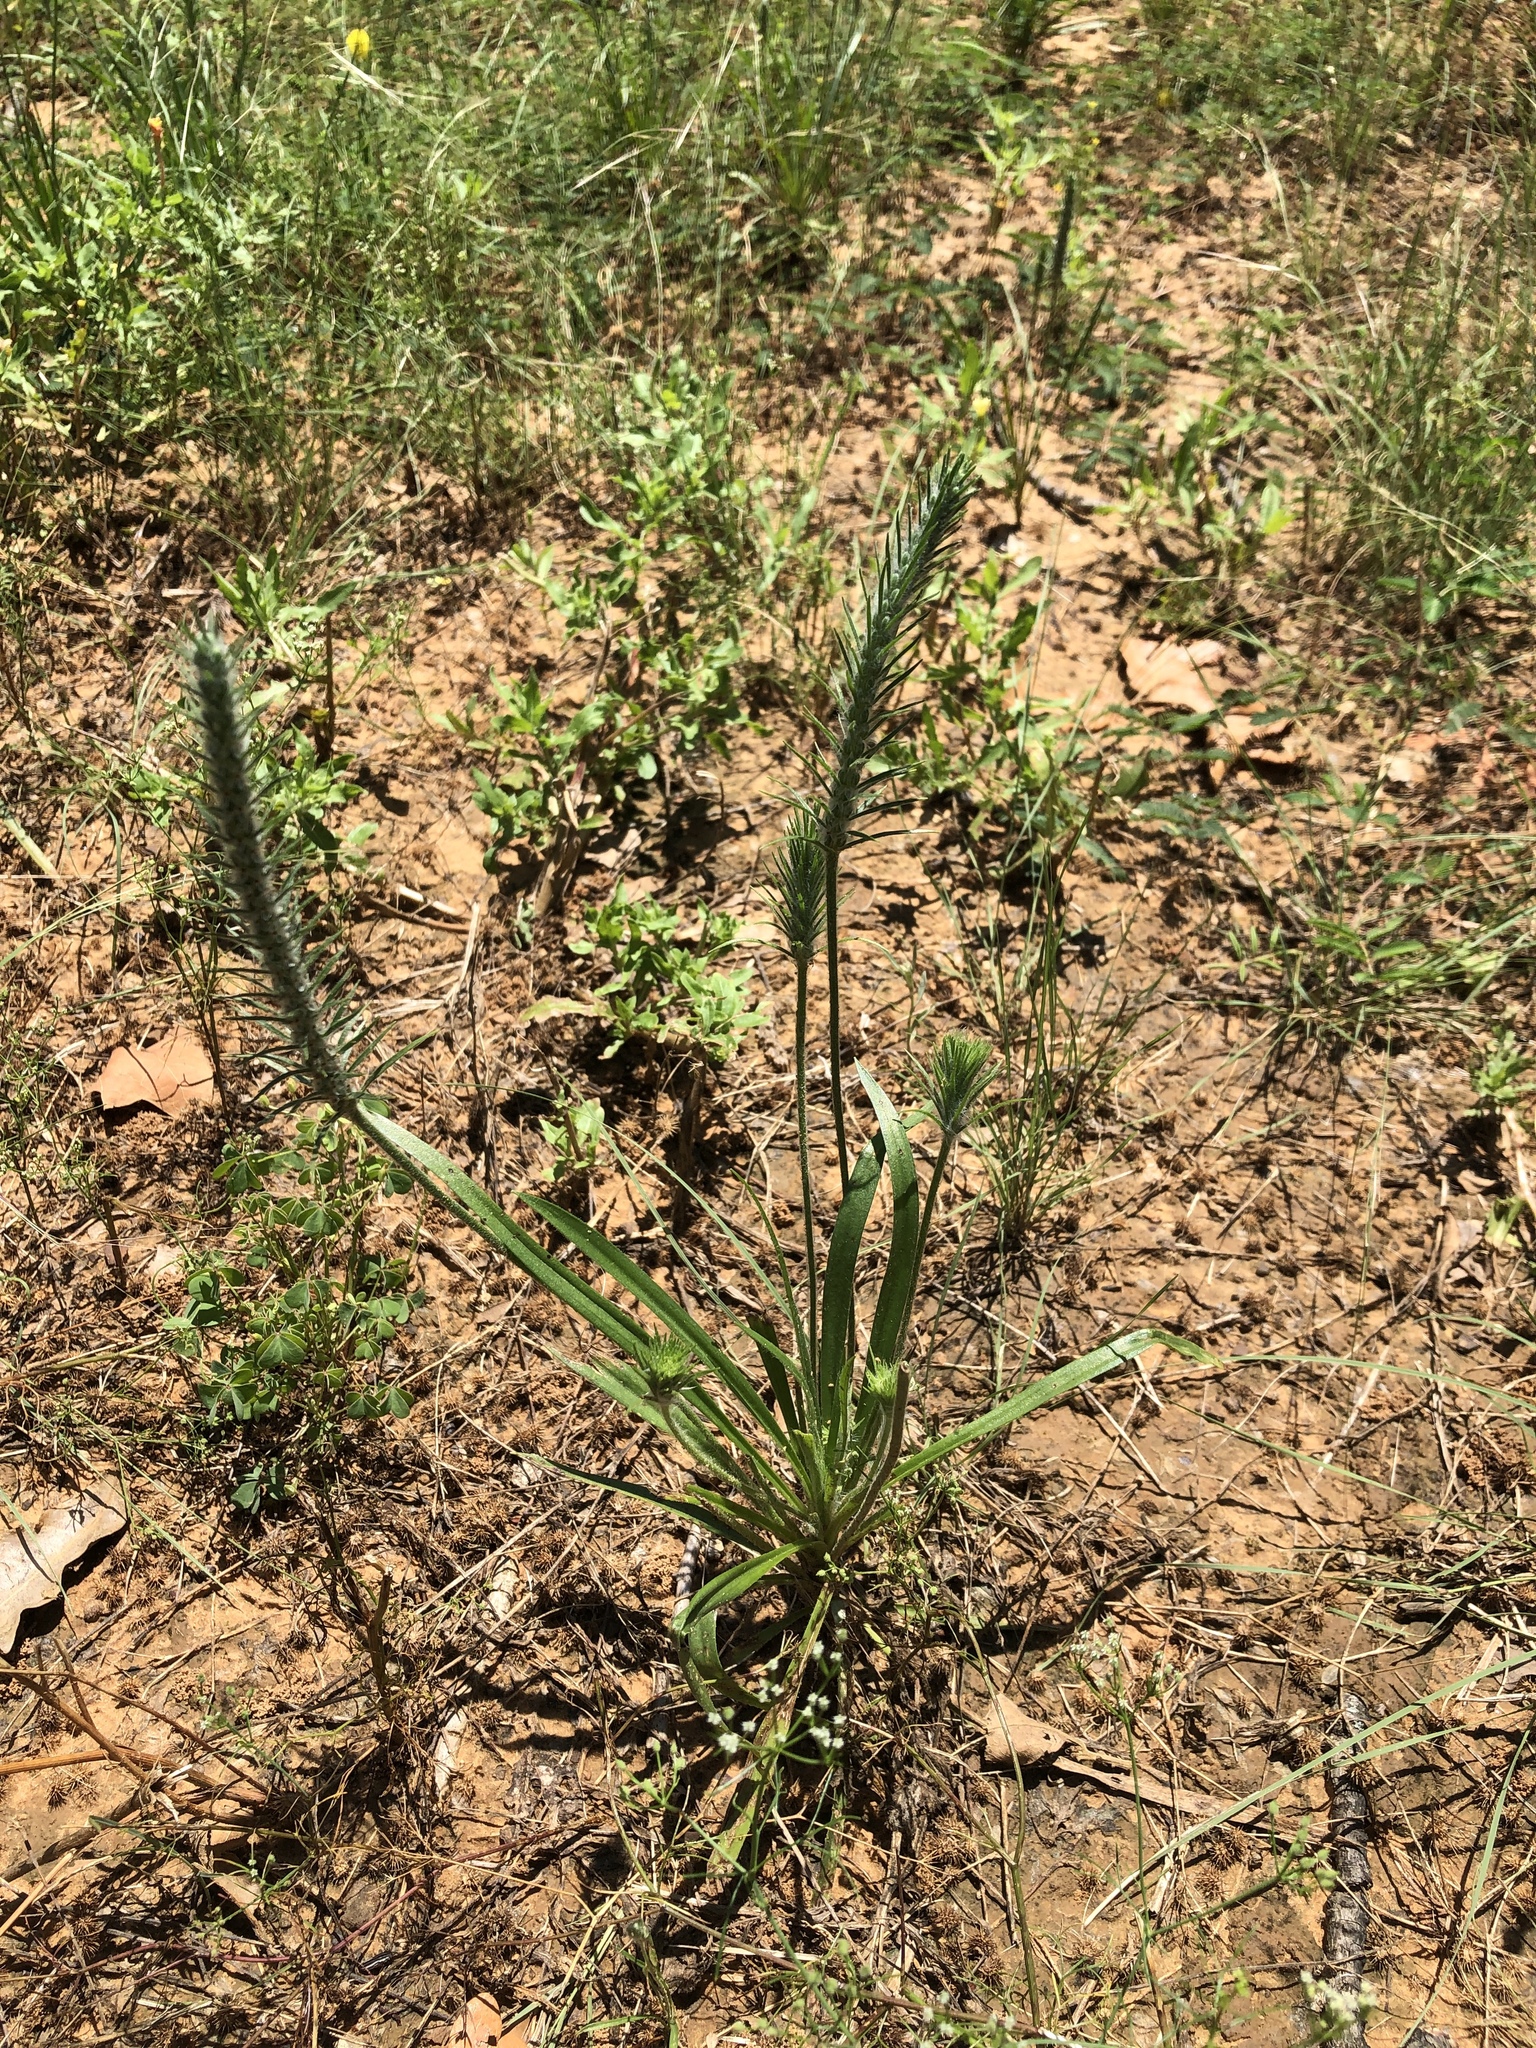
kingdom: Plantae
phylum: Tracheophyta
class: Magnoliopsida
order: Lamiales
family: Plantaginaceae
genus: Plantago
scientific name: Plantago aristata
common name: Bracted plantain
